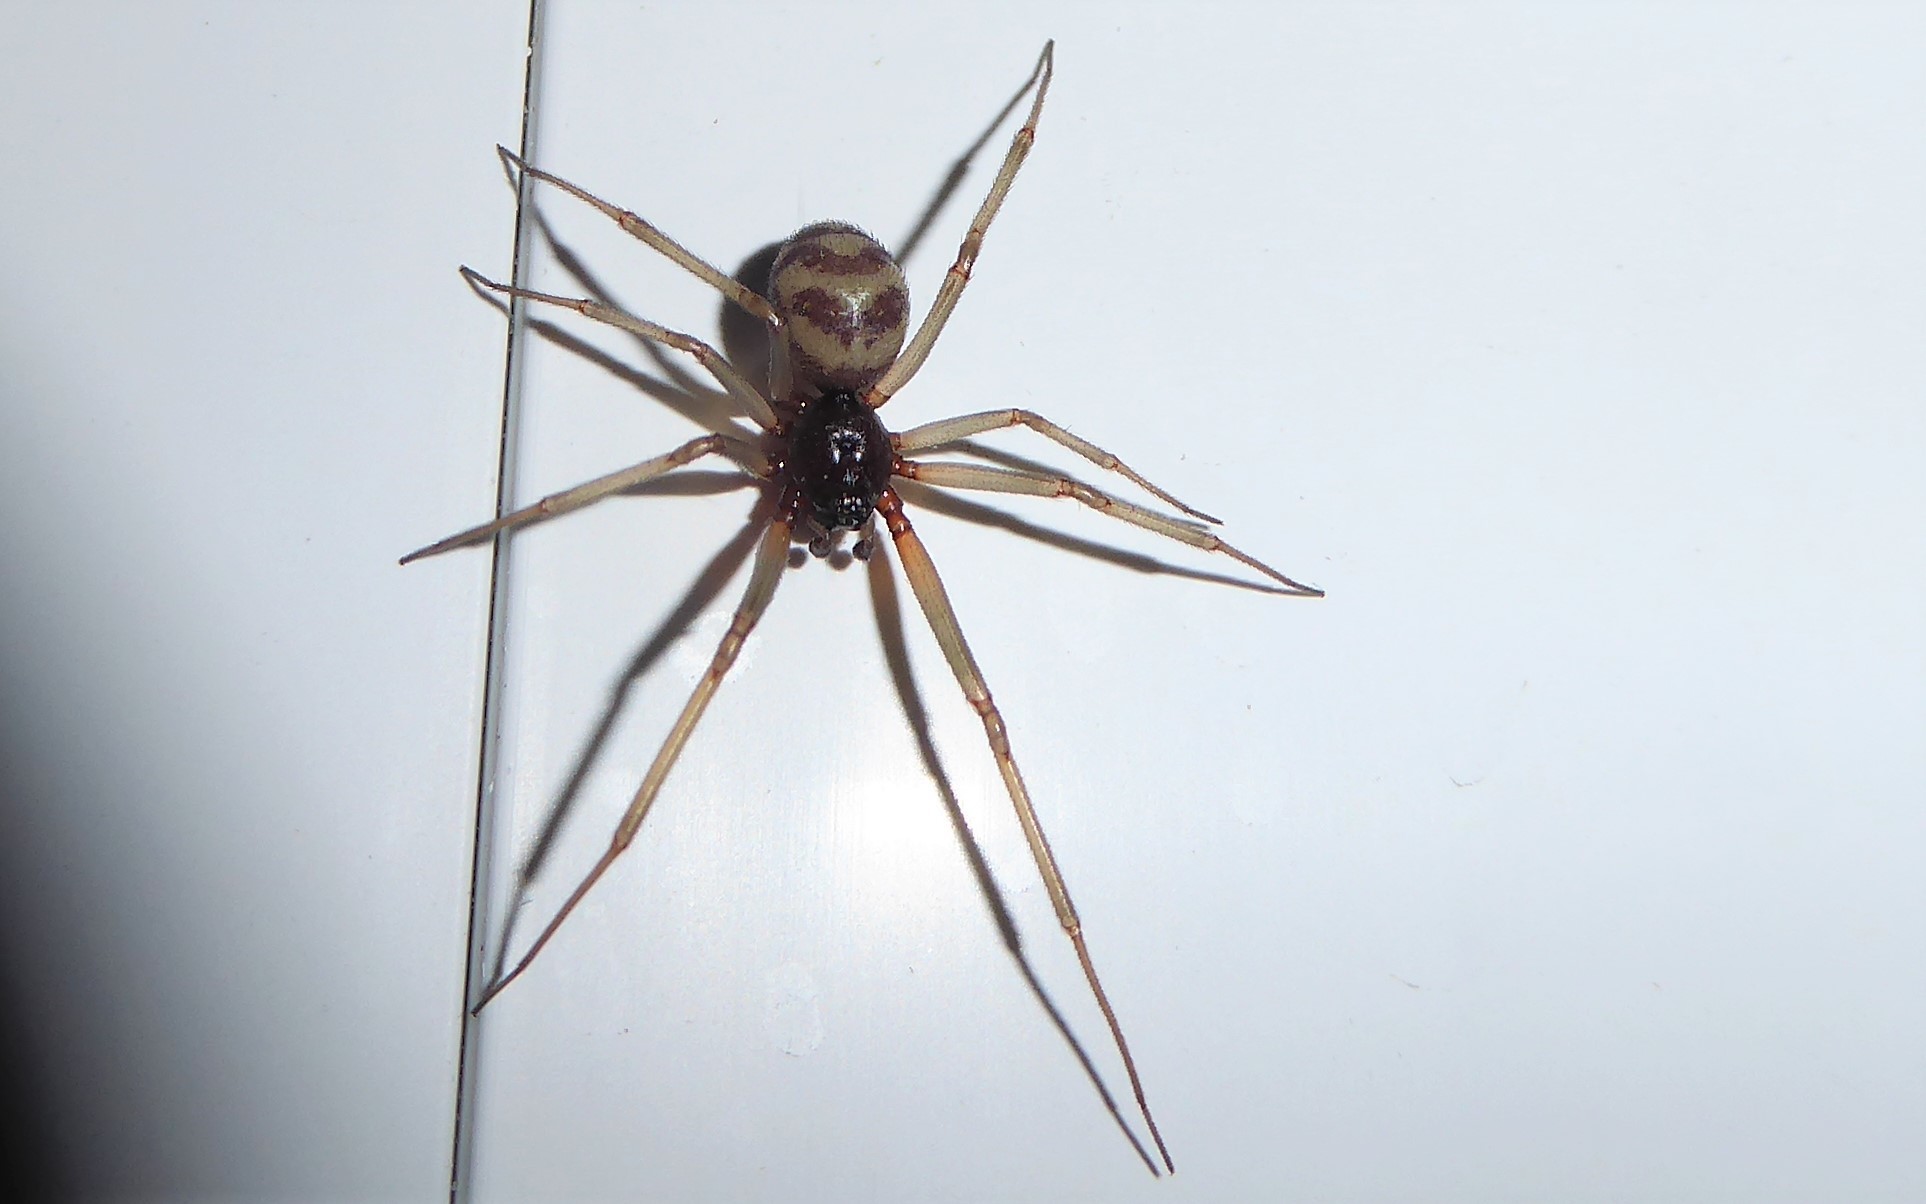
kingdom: Animalia
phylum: Arthropoda
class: Arachnida
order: Araneae
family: Theridiidae
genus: Steatoda
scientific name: Steatoda grossa
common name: False black widow
